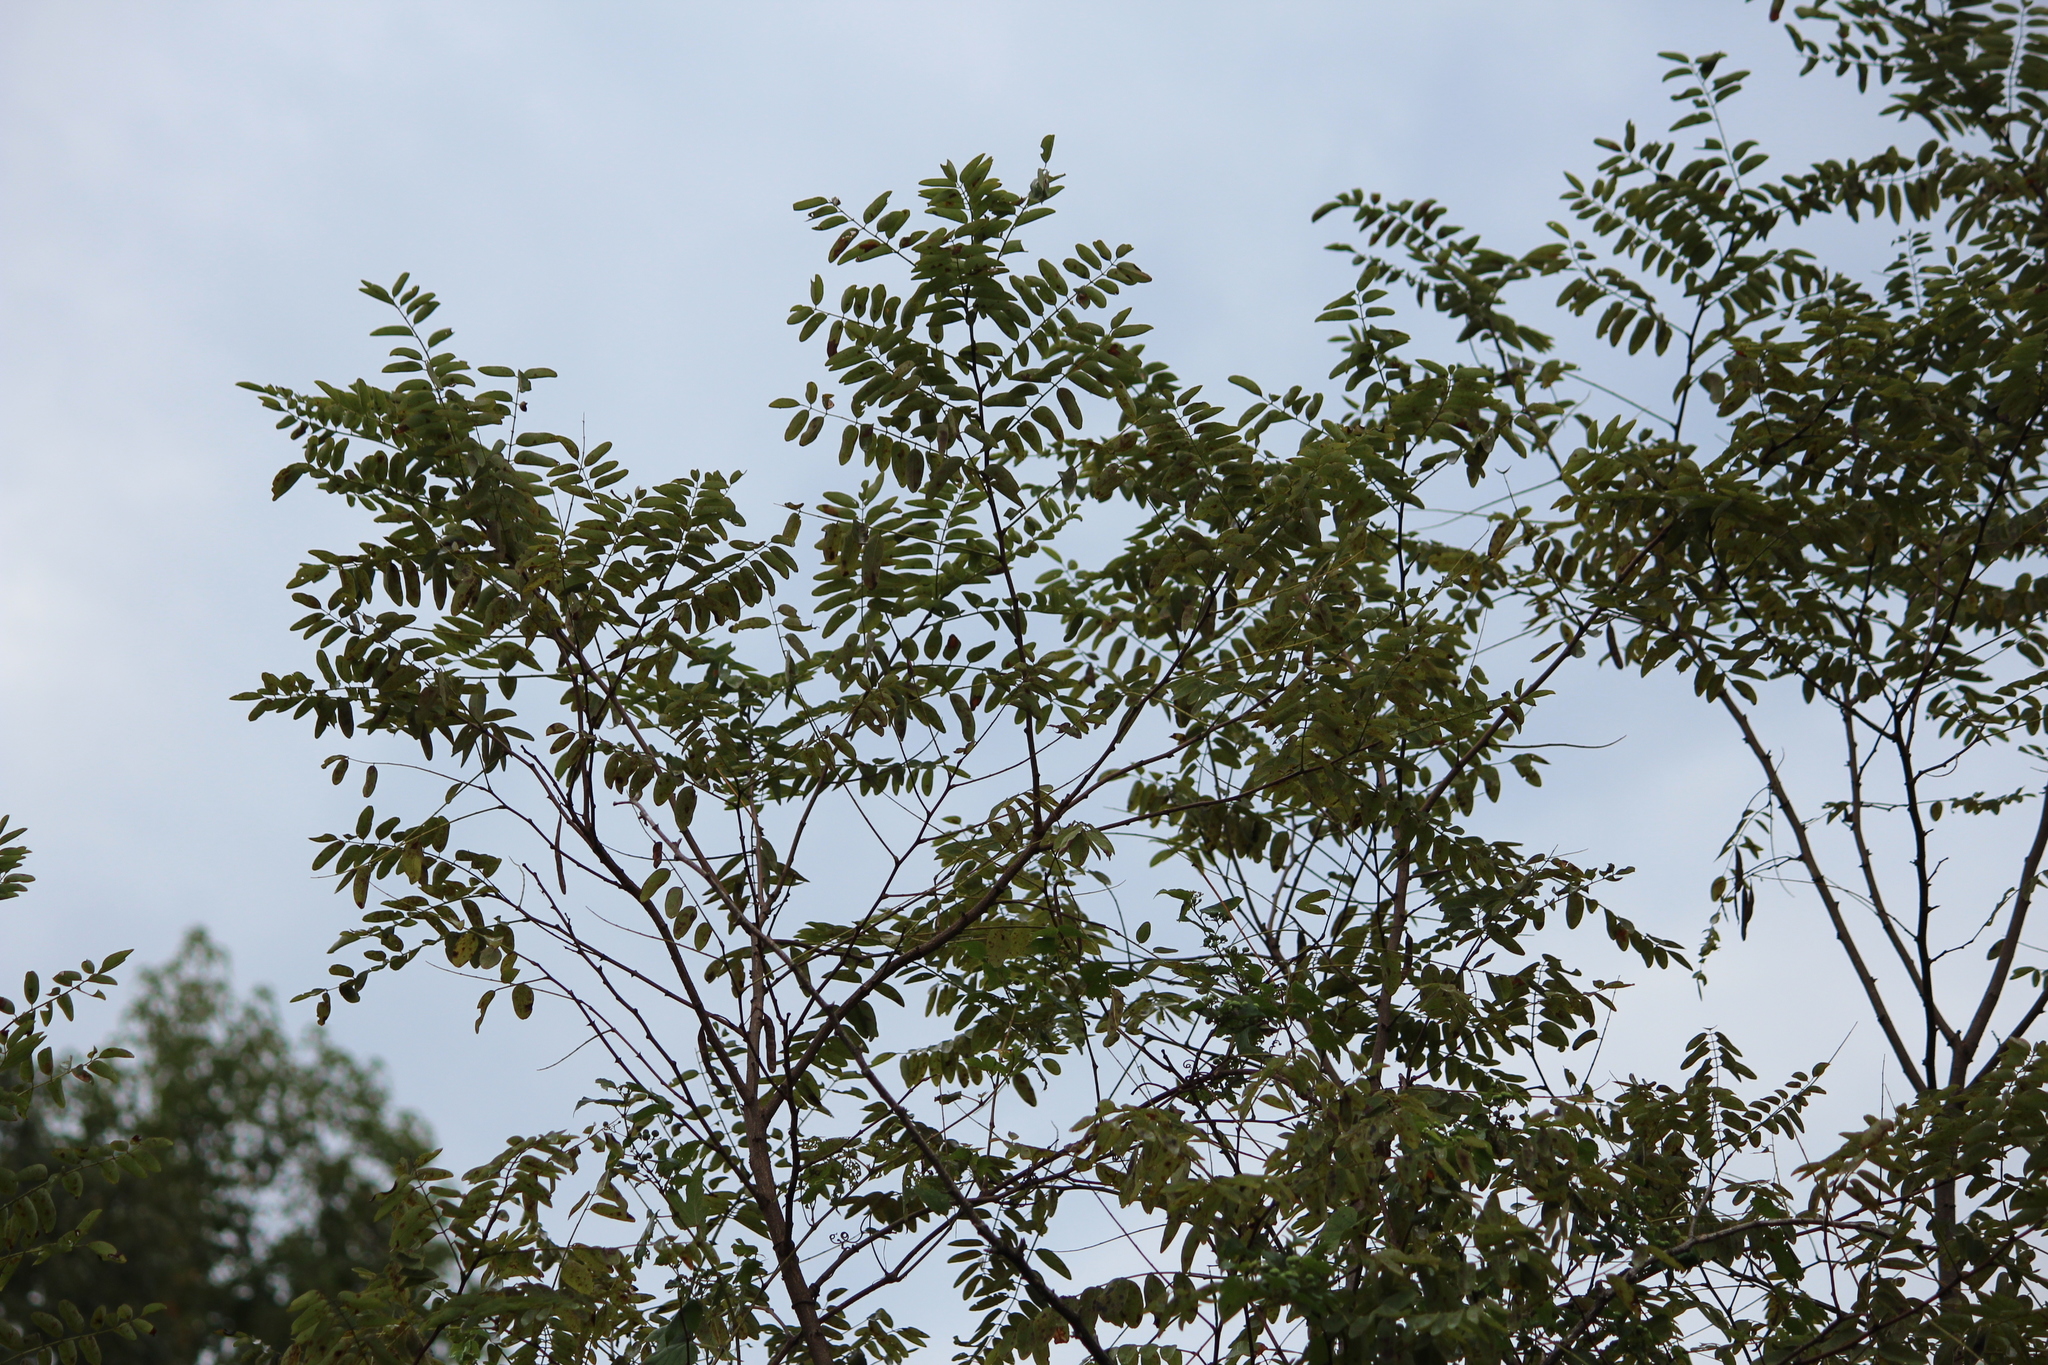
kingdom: Plantae
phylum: Tracheophyta
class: Magnoliopsida
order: Fabales
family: Fabaceae
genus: Robinia
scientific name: Robinia pseudoacacia
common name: Black locust
